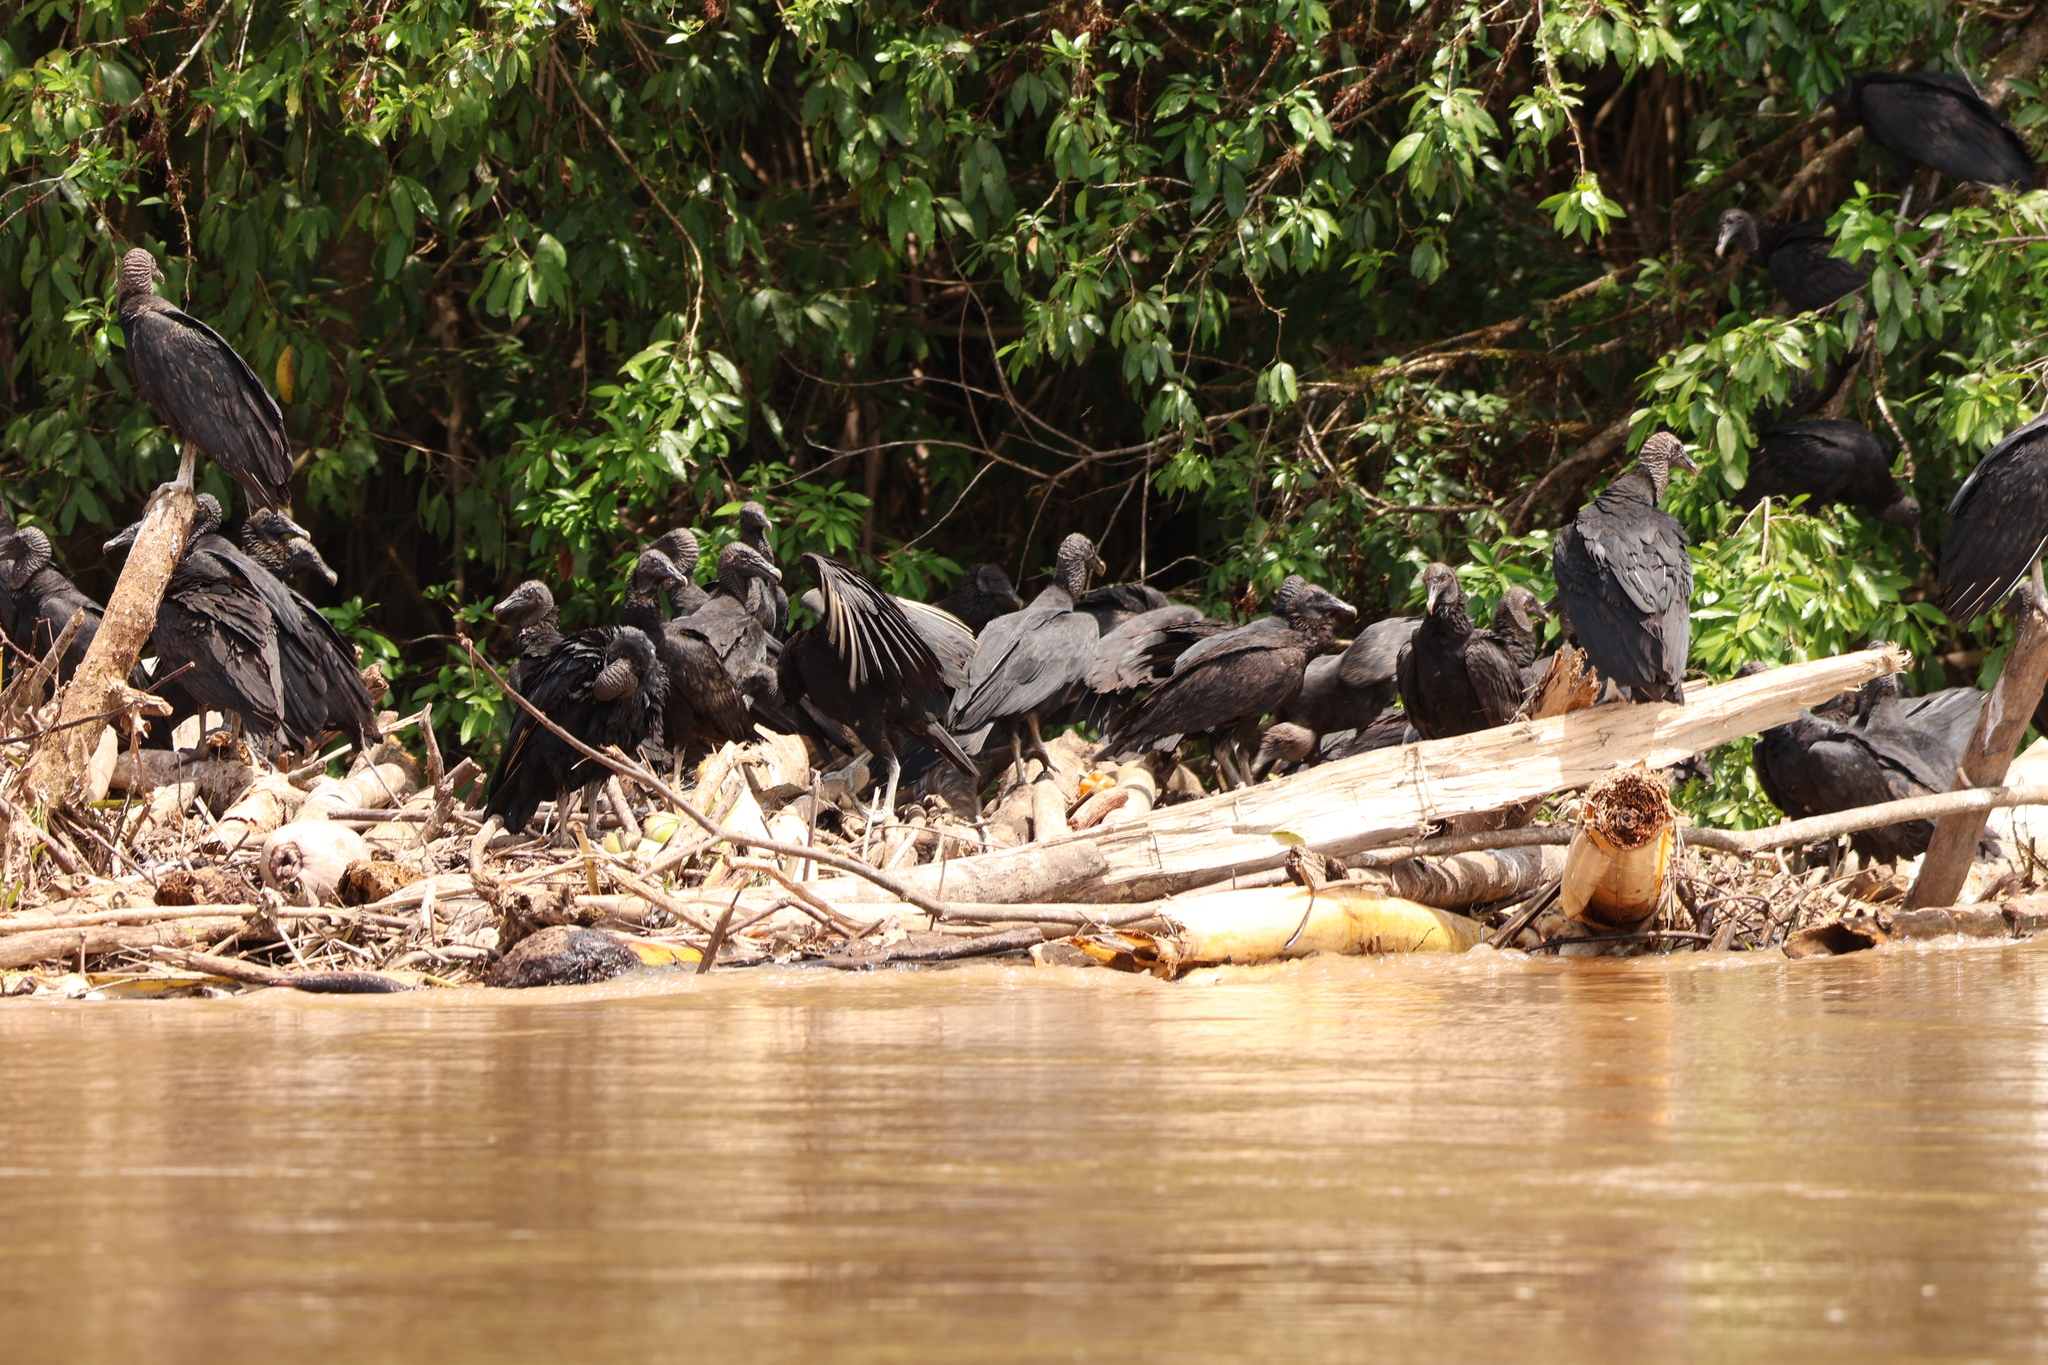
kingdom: Animalia
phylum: Chordata
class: Aves
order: Accipitriformes
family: Cathartidae
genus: Coragyps
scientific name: Coragyps atratus
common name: Black vulture
